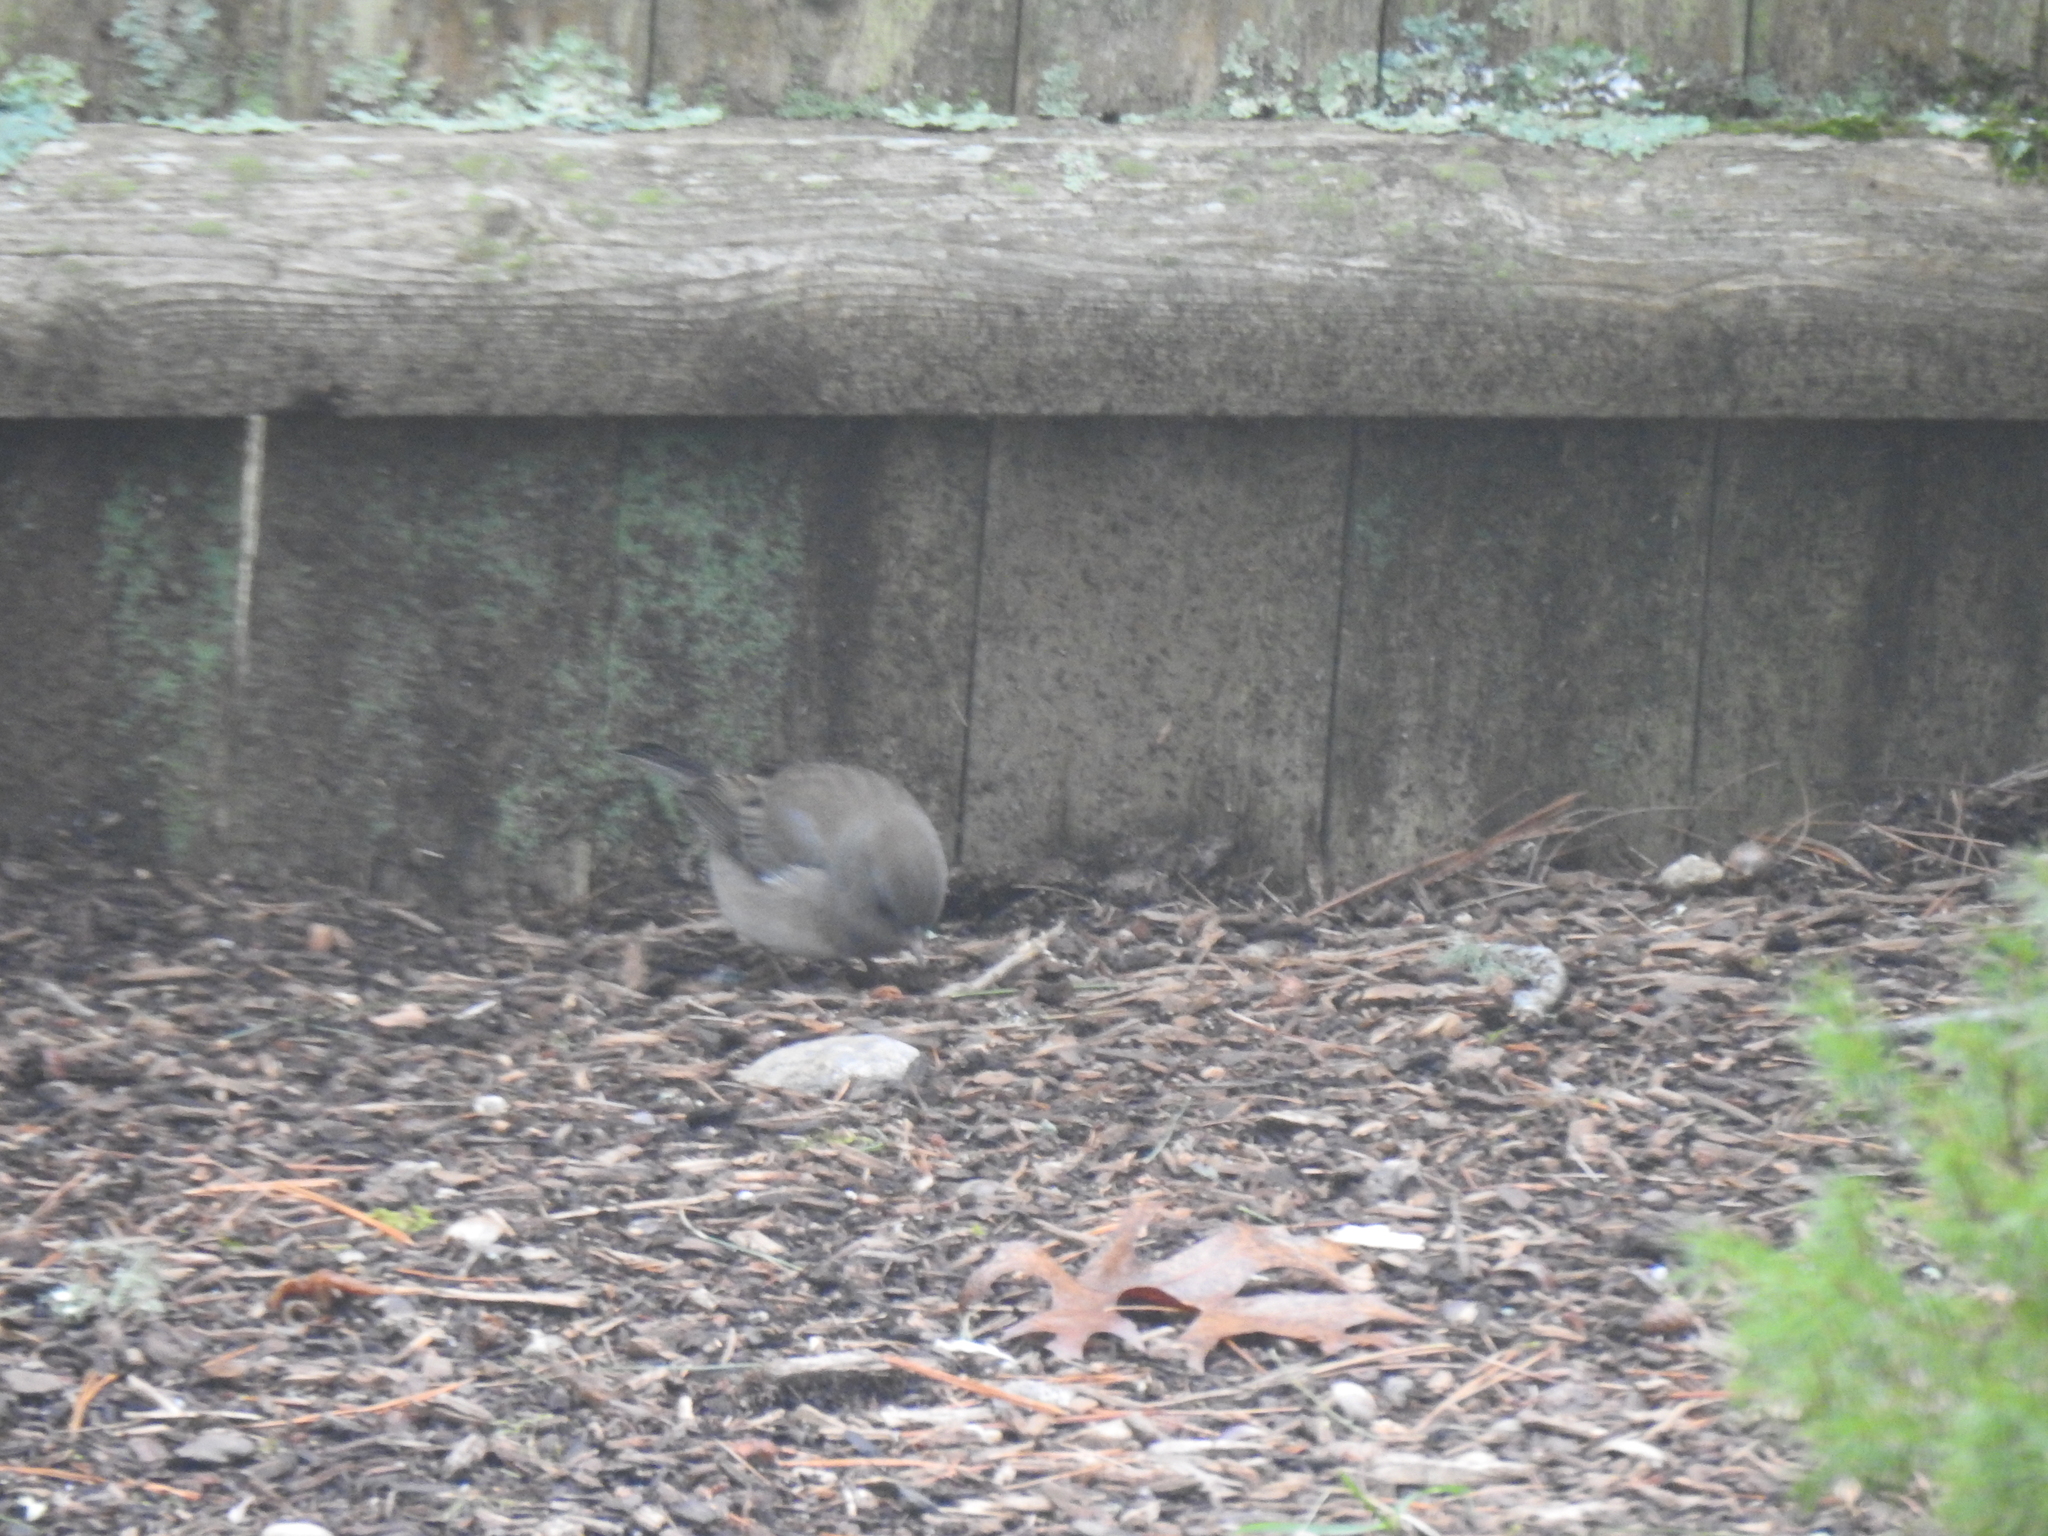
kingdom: Animalia
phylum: Chordata
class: Aves
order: Passeriformes
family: Passerellidae
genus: Junco
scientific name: Junco hyemalis
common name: Dark-eyed junco
